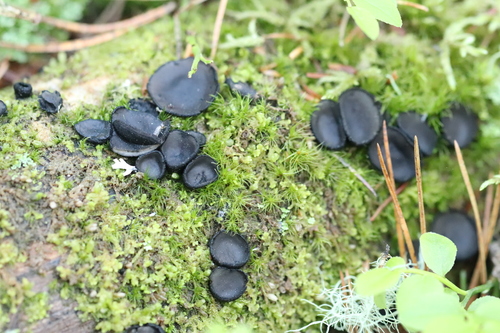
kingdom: Fungi
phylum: Ascomycota
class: Pezizomycetes
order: Pezizales
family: Sarcosomataceae
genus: Pseudoplectania
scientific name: Pseudoplectania nigrella
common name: Ebony cup
